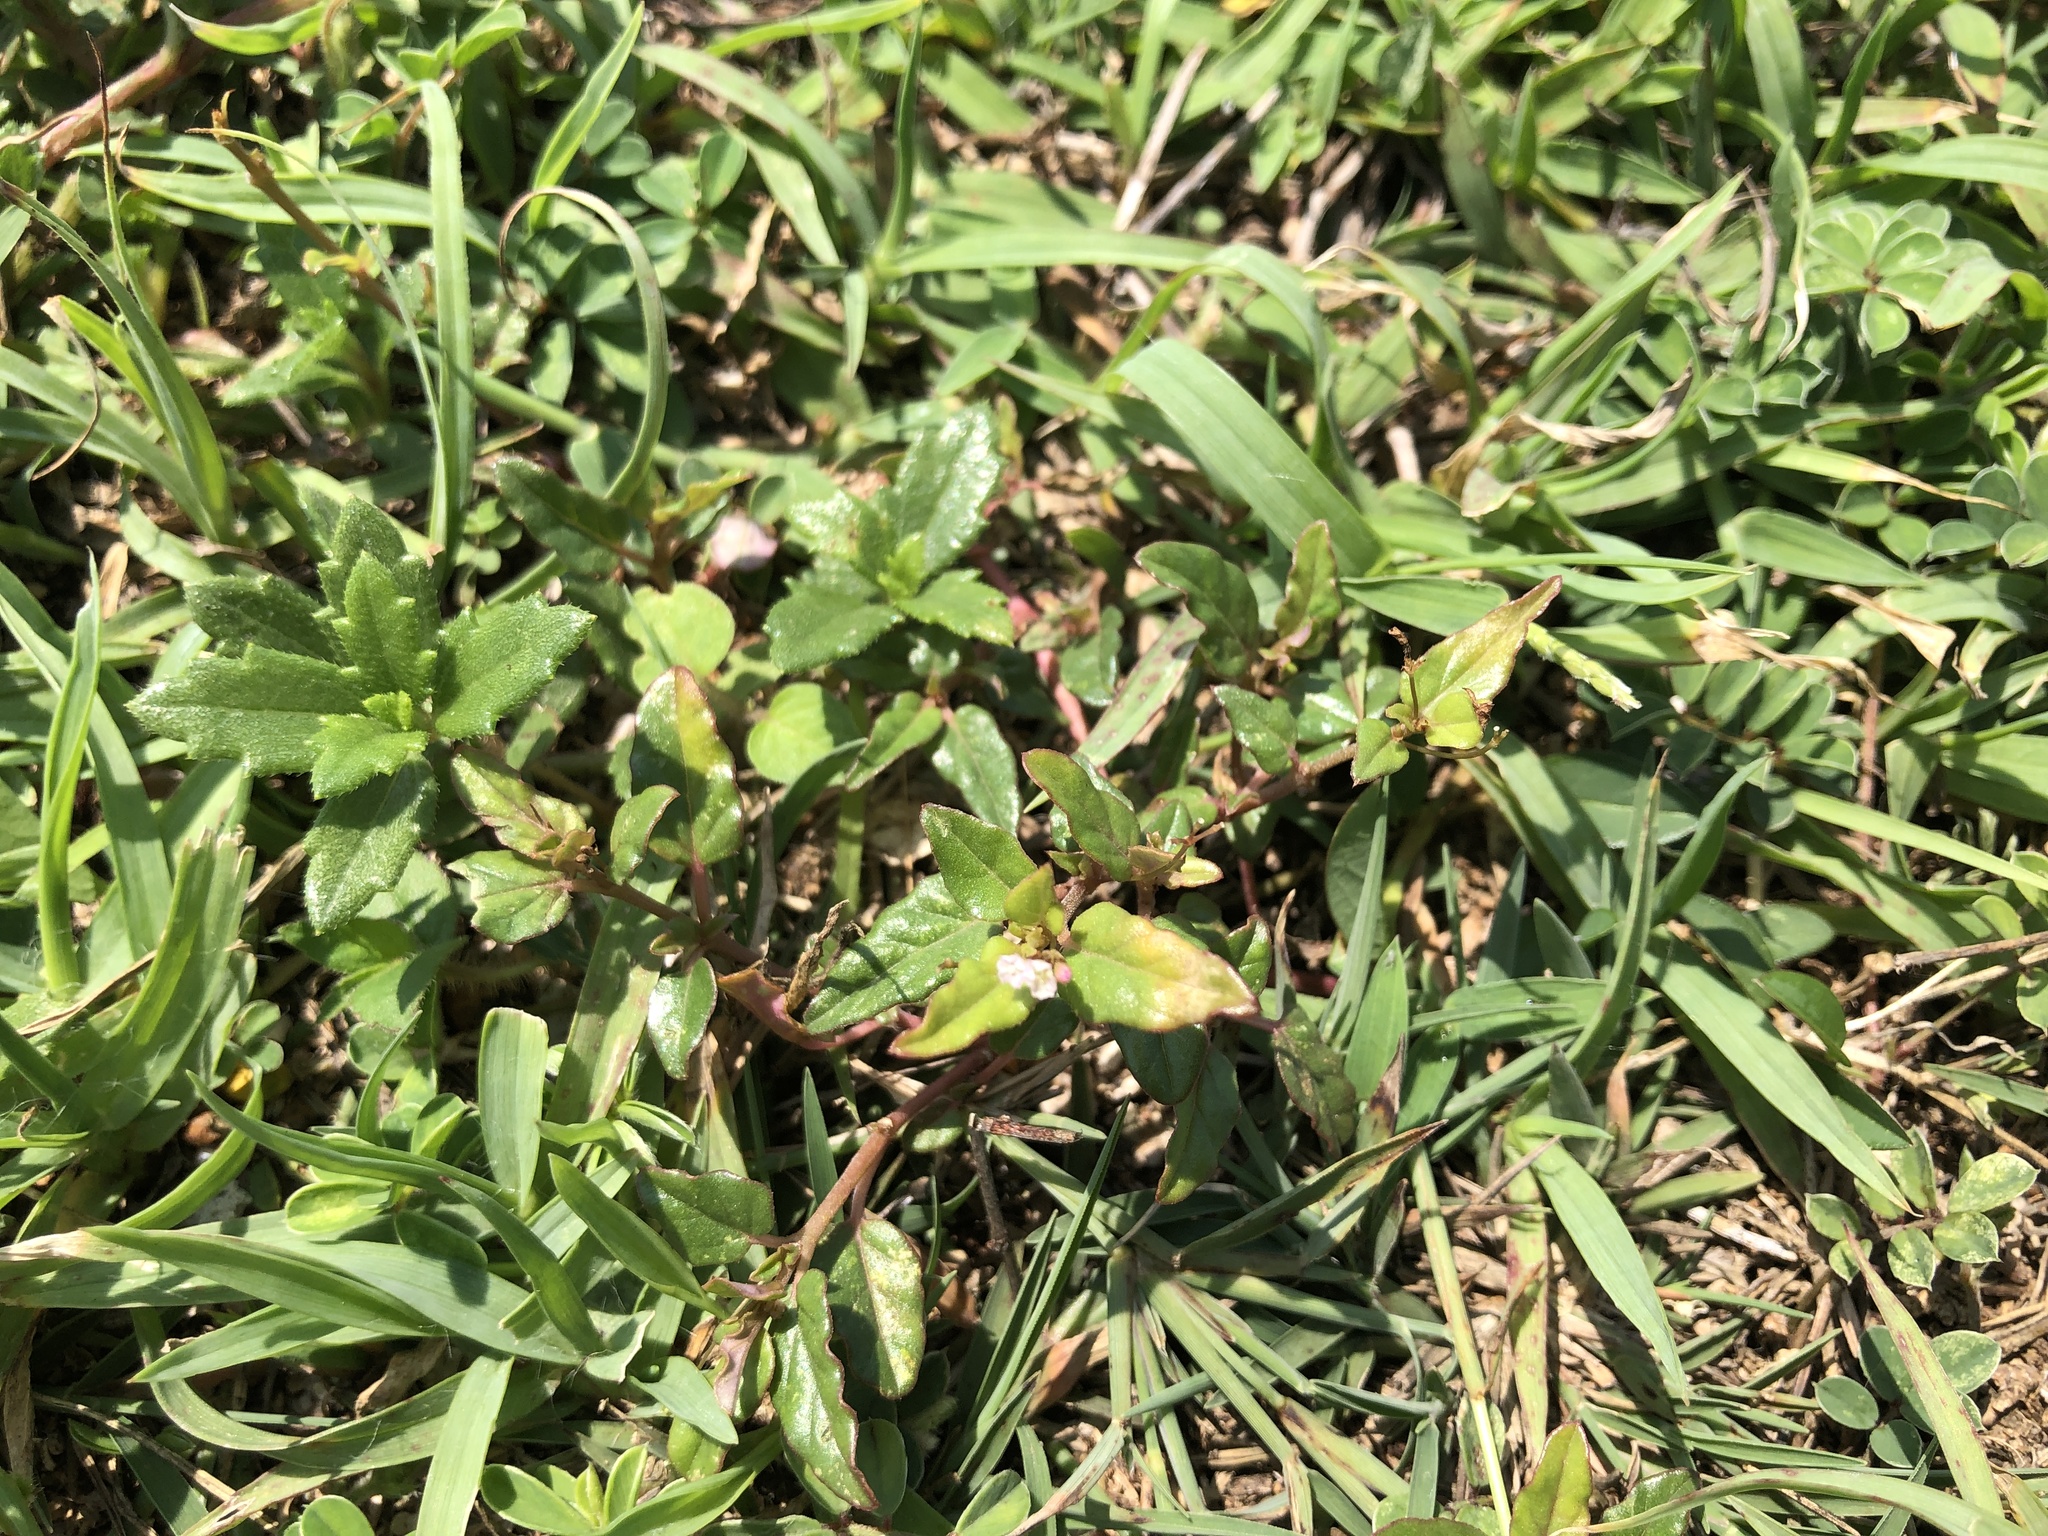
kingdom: Plantae
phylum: Tracheophyta
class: Magnoliopsida
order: Caryophyllales
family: Nyctaginaceae
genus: Boerhavia
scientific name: Boerhavia glabrata
